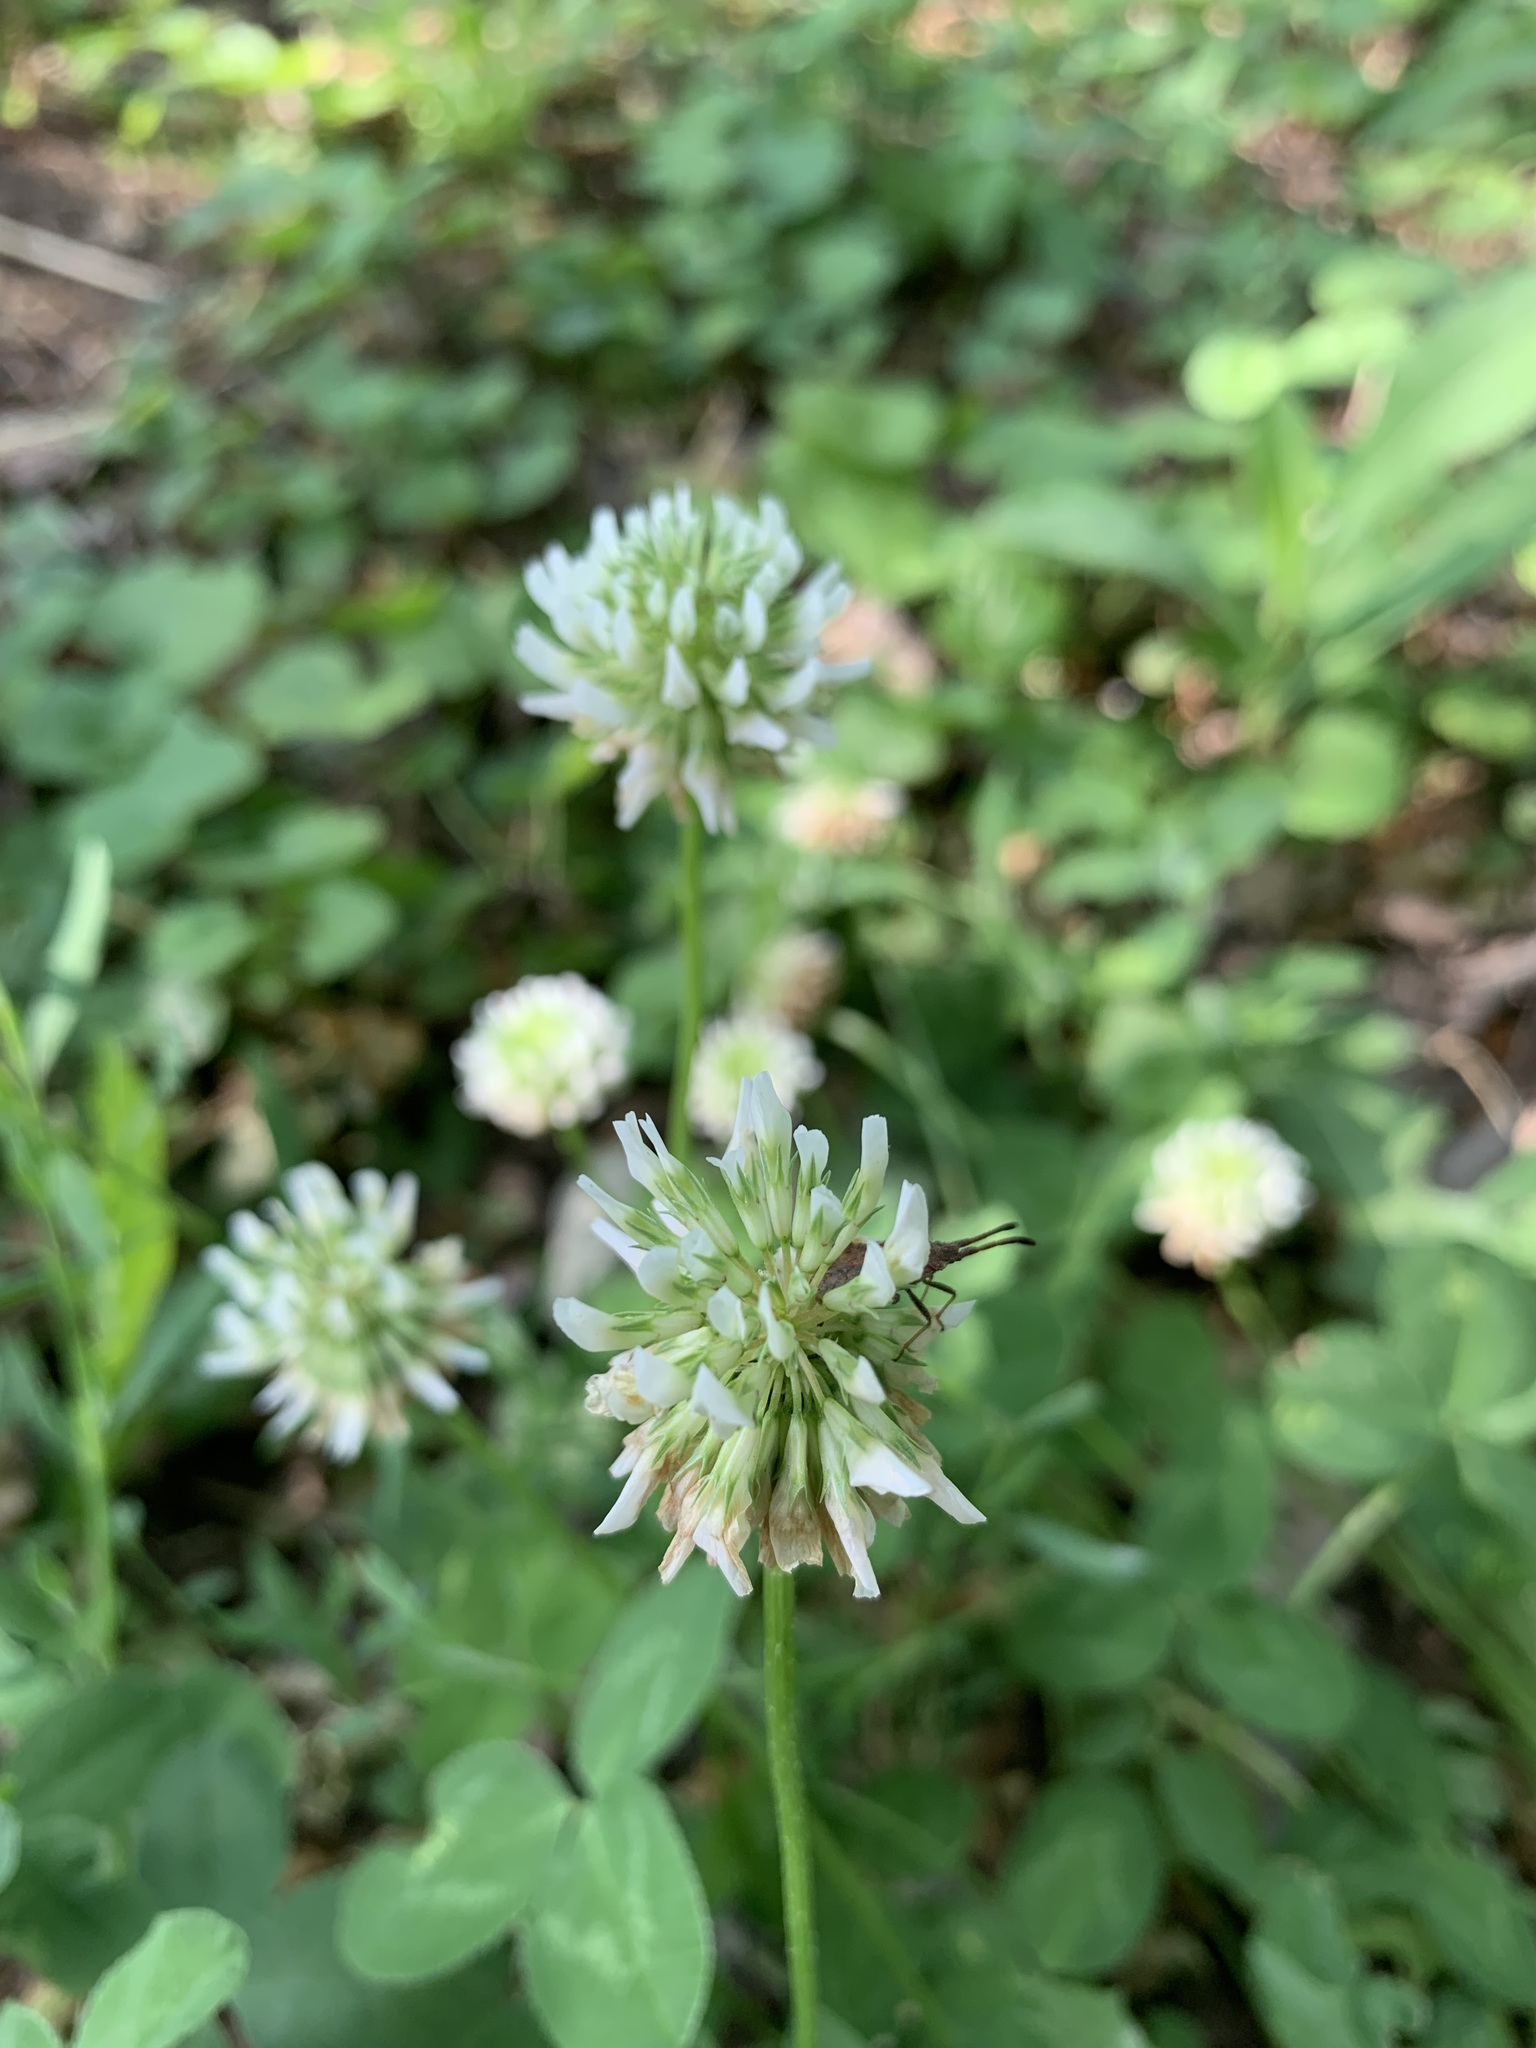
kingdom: Plantae
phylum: Tracheophyta
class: Magnoliopsida
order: Fabales
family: Fabaceae
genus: Trifolium
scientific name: Trifolium repens
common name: White clover
